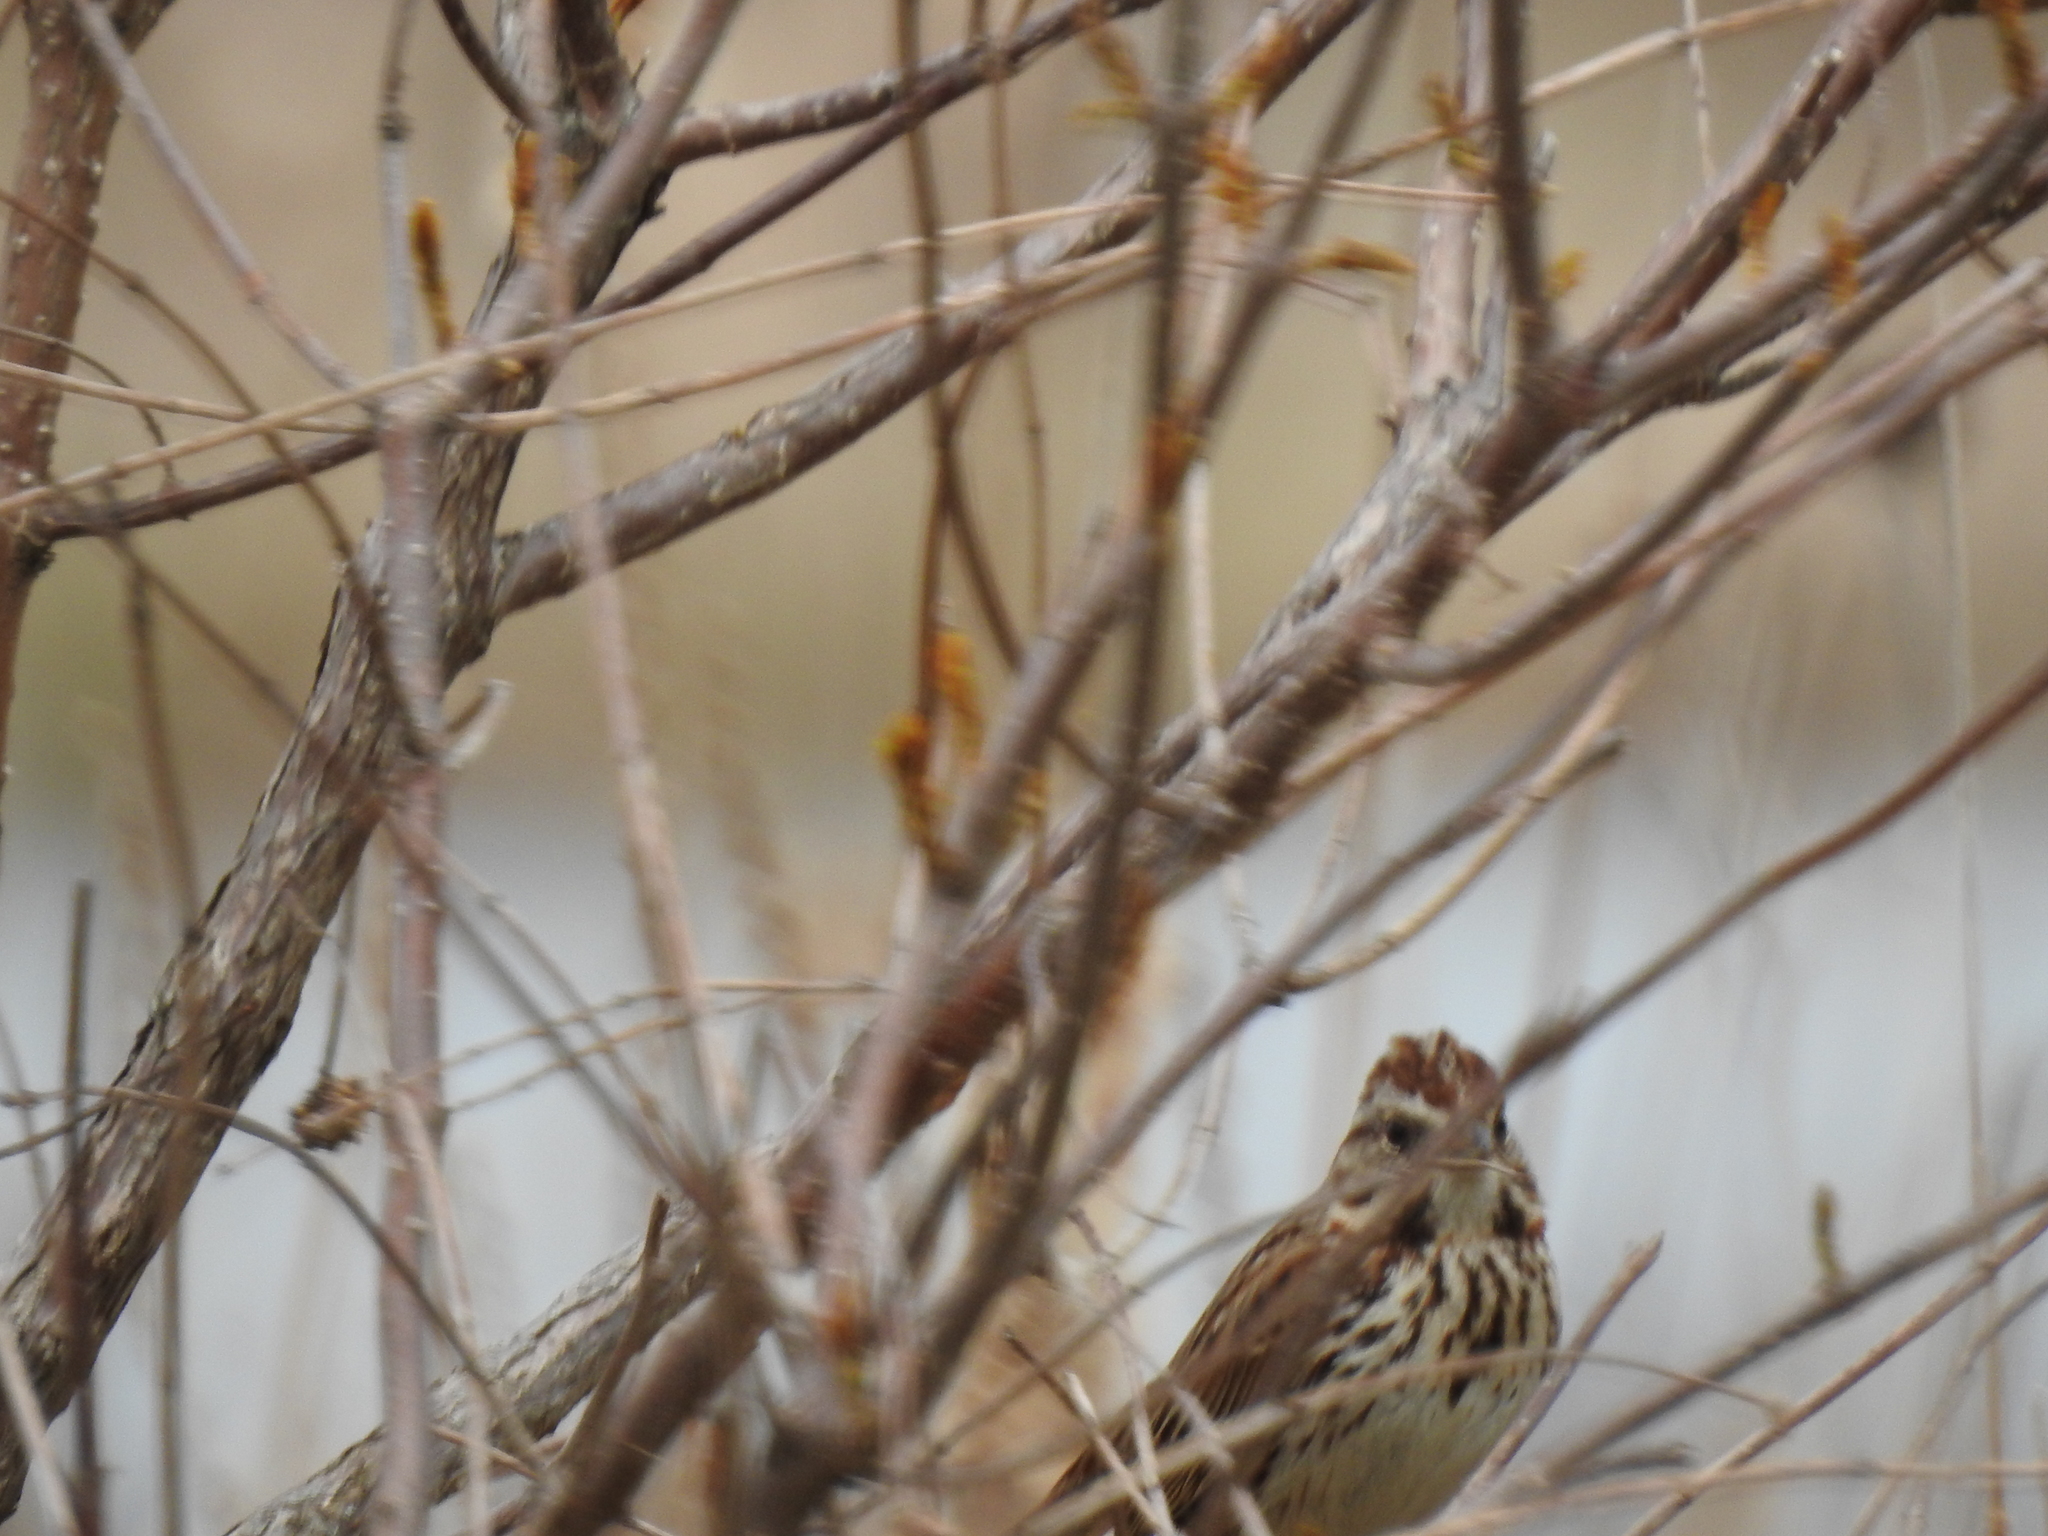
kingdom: Animalia
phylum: Chordata
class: Aves
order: Passeriformes
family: Passerellidae
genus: Melospiza
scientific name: Melospiza melodia
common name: Song sparrow
